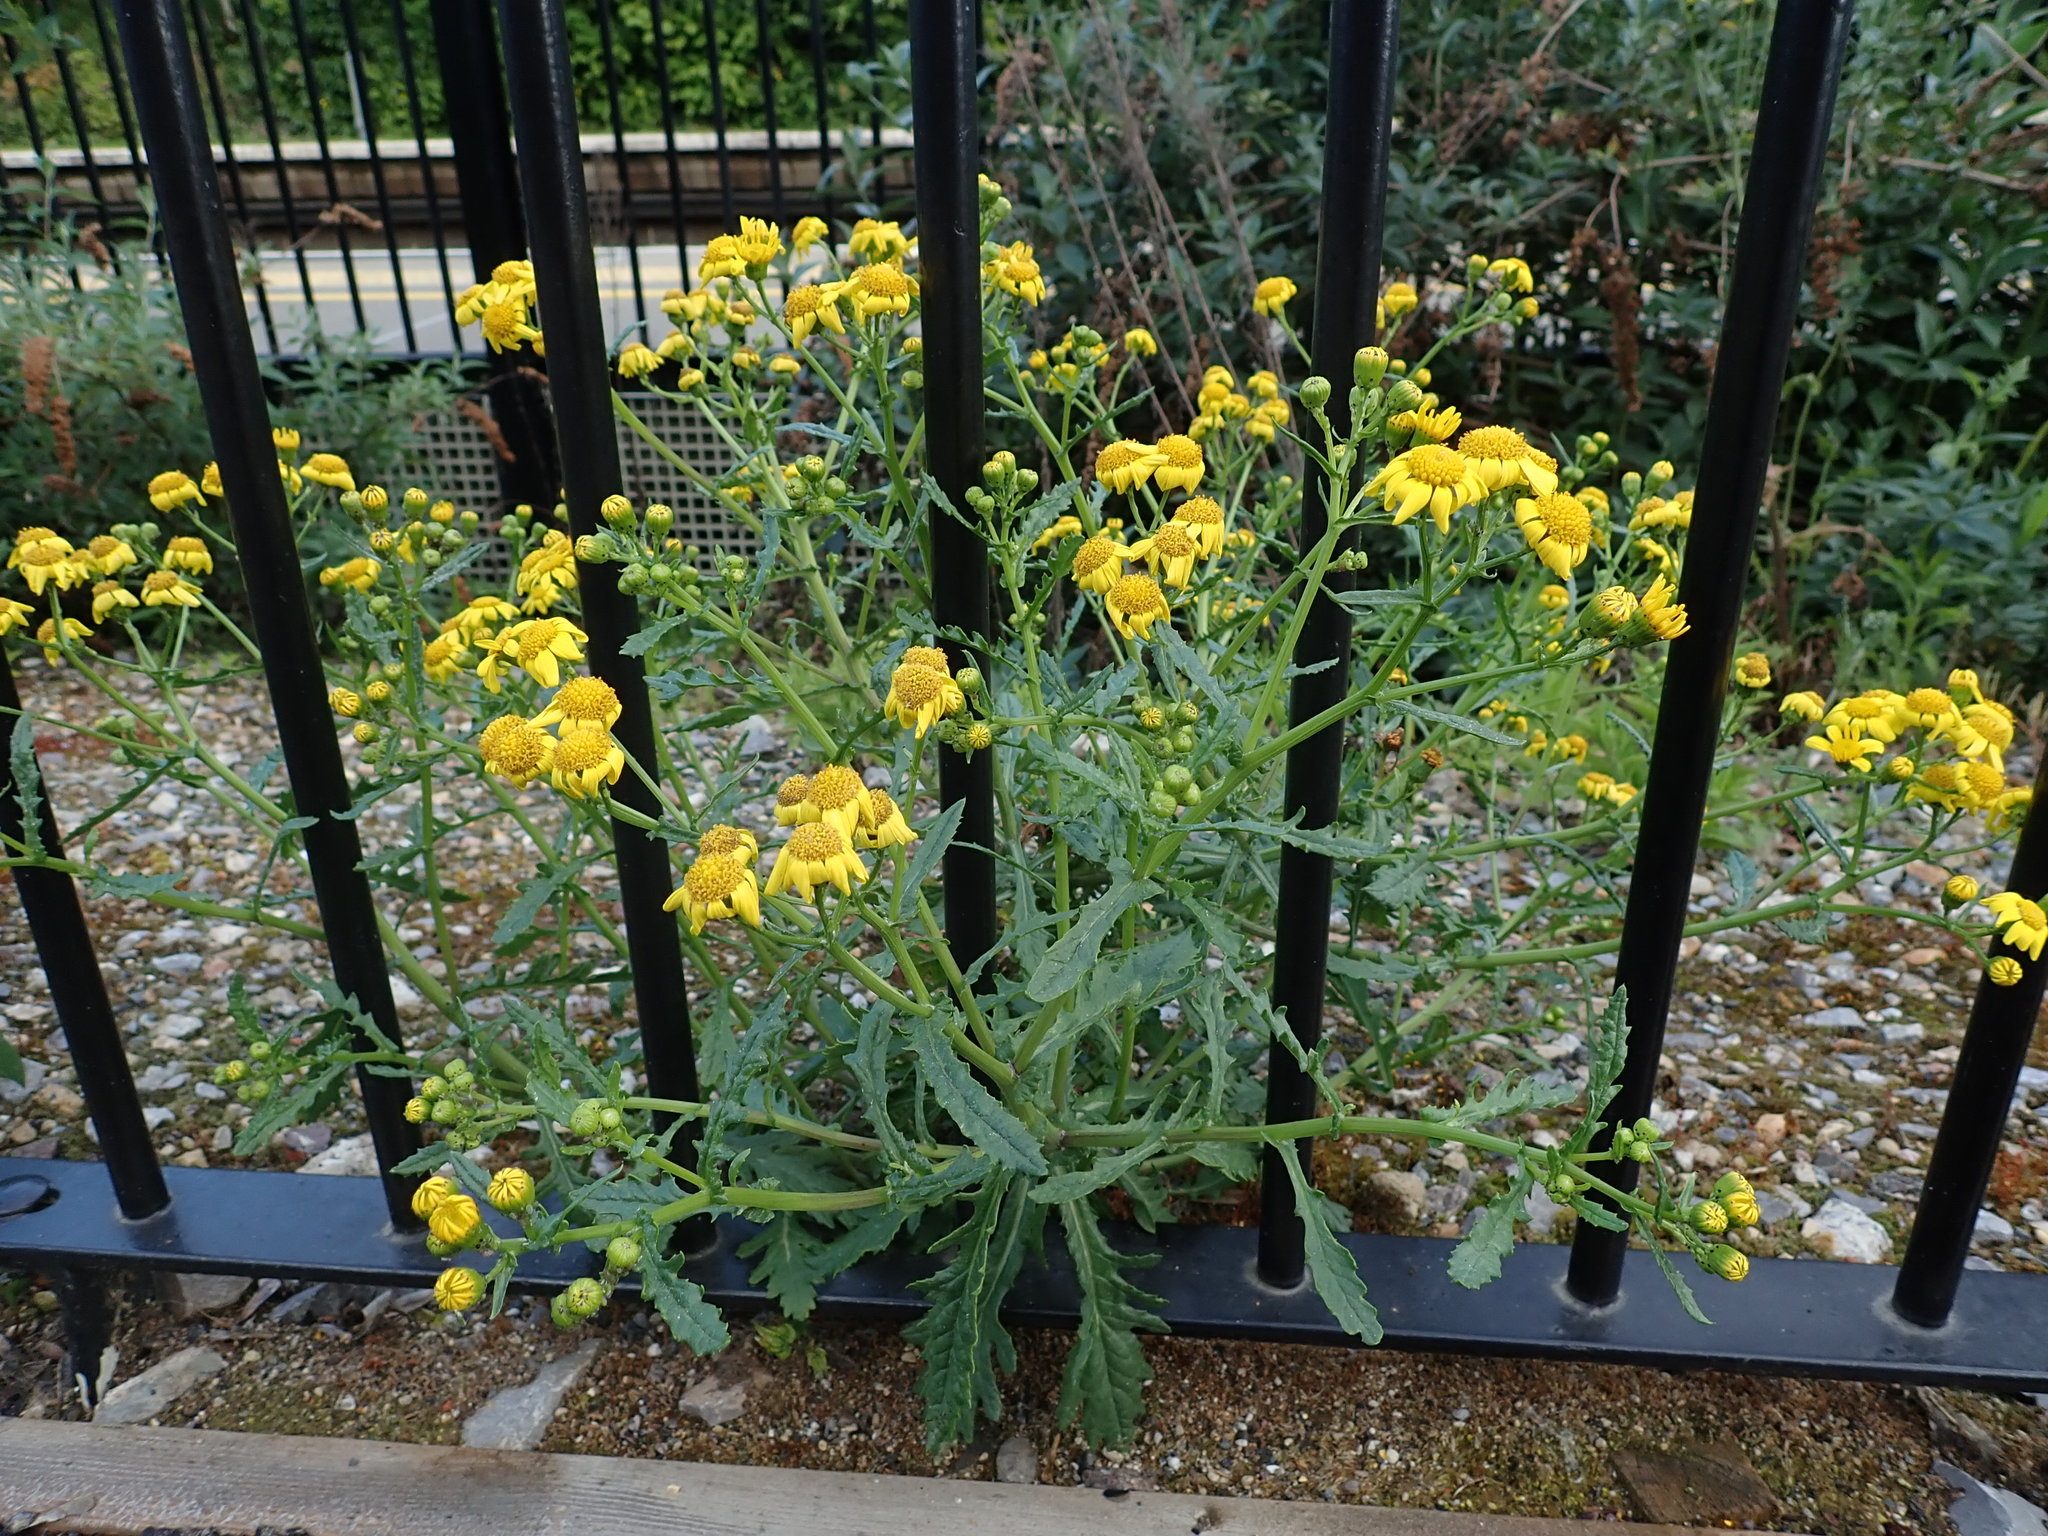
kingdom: Plantae
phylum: Tracheophyta
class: Magnoliopsida
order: Asterales
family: Asteraceae
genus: Senecio
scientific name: Senecio squalidus
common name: Oxford ragwort
